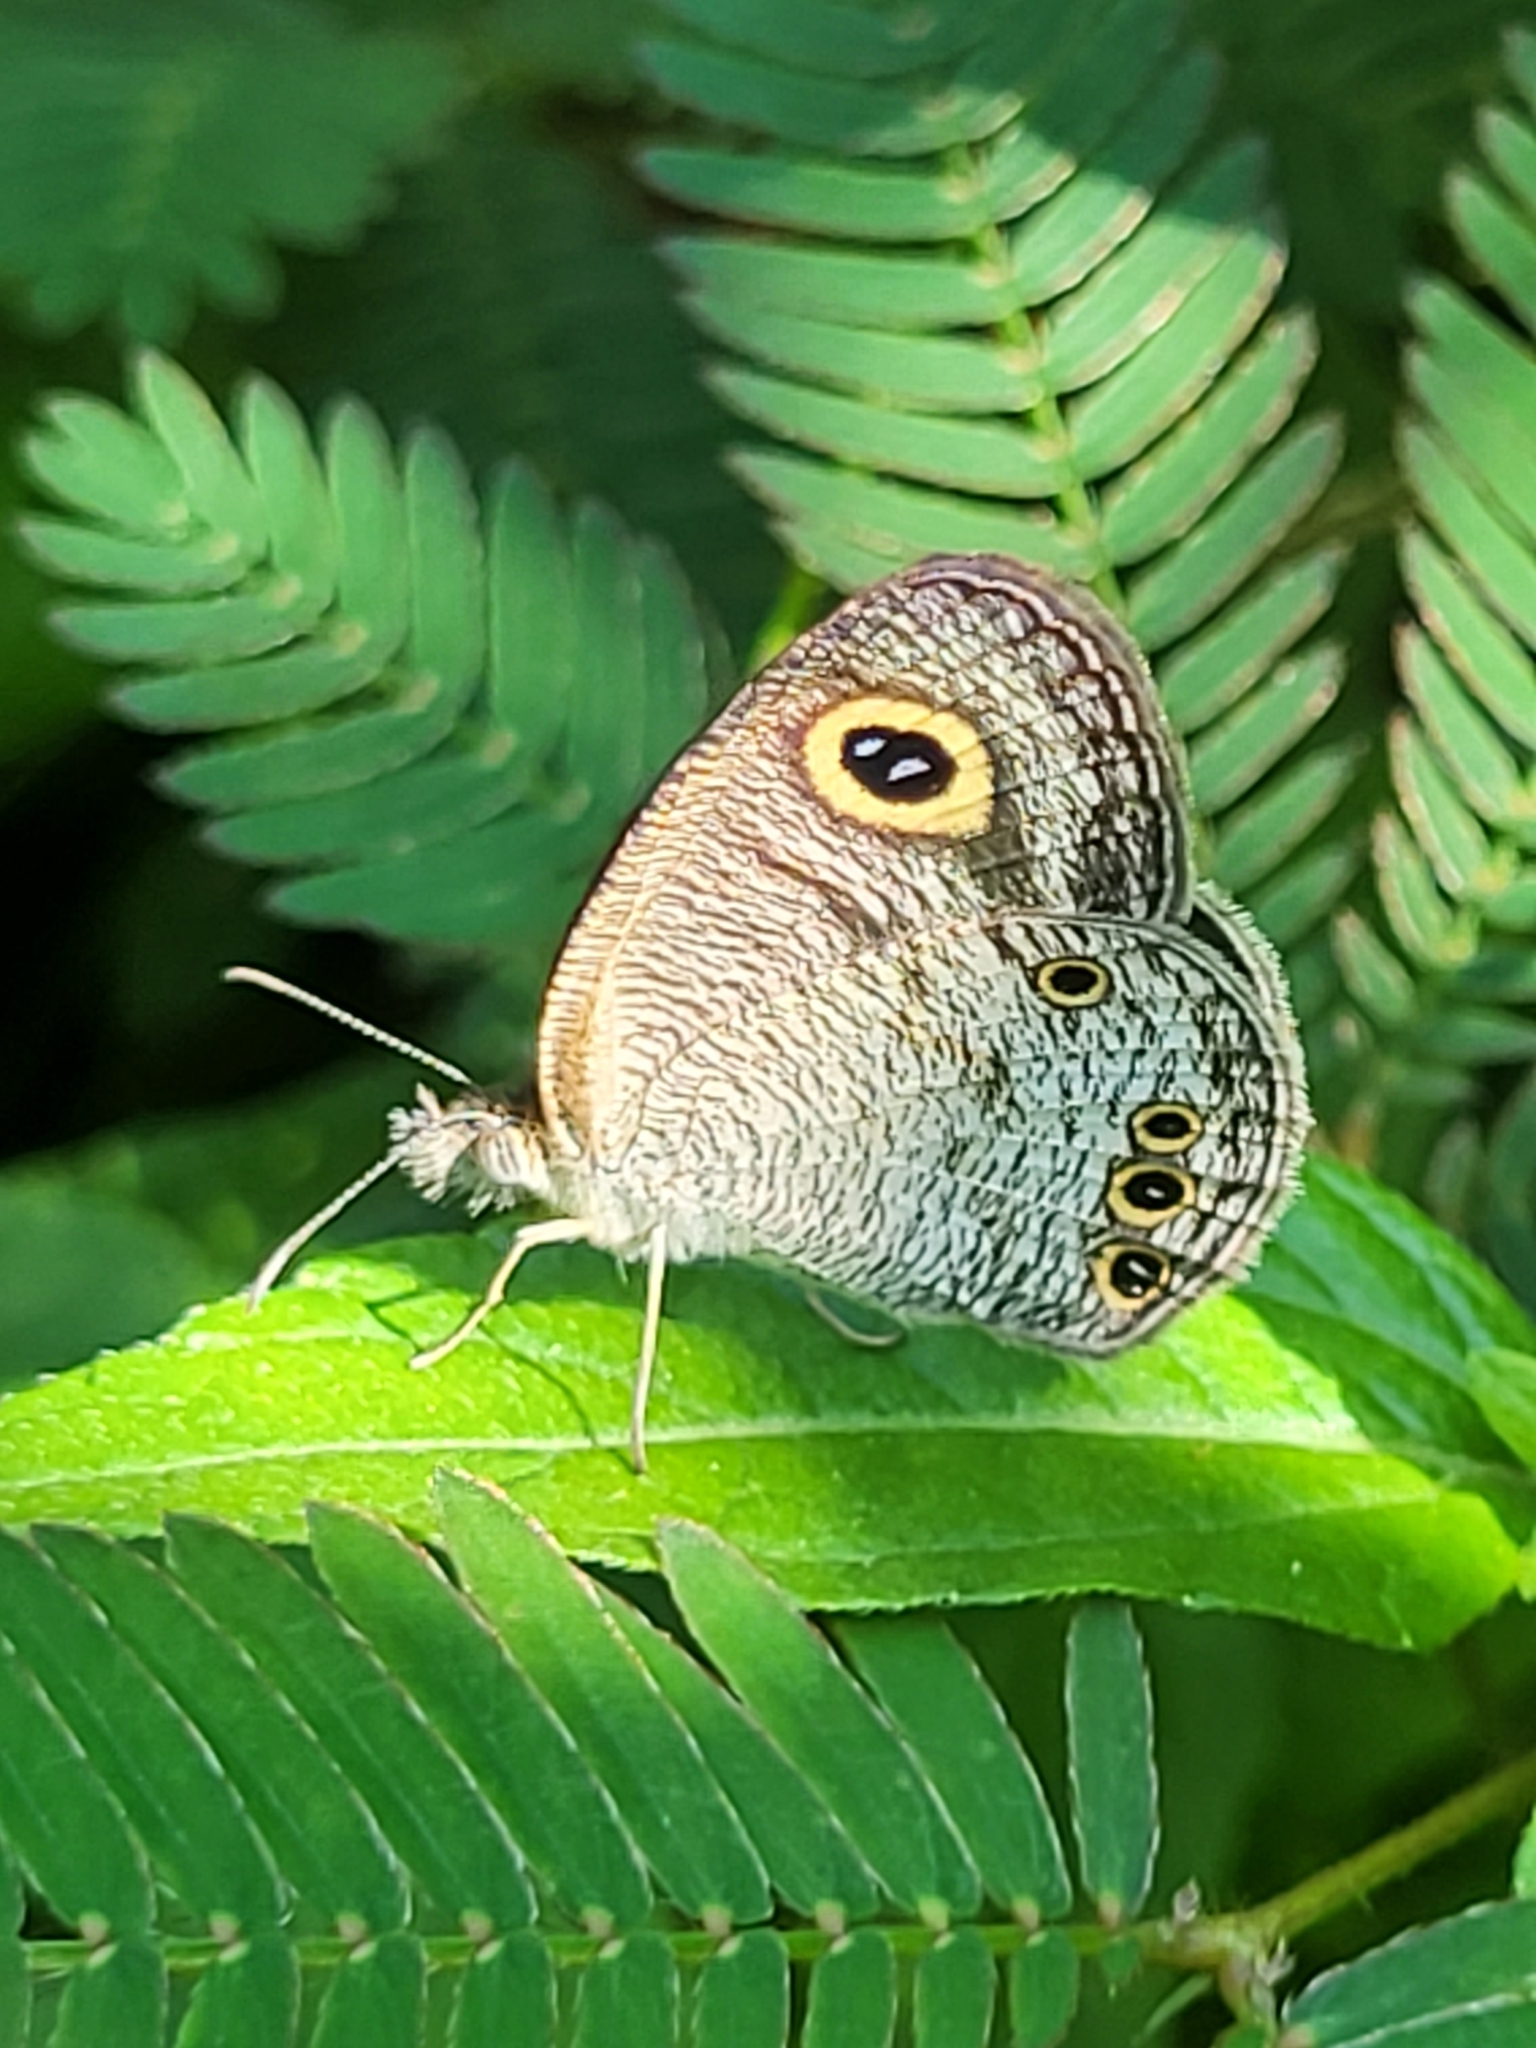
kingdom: Animalia
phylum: Arthropoda
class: Insecta
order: Lepidoptera
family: Nymphalidae
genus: Ypthima
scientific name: Ypthima huebneri
